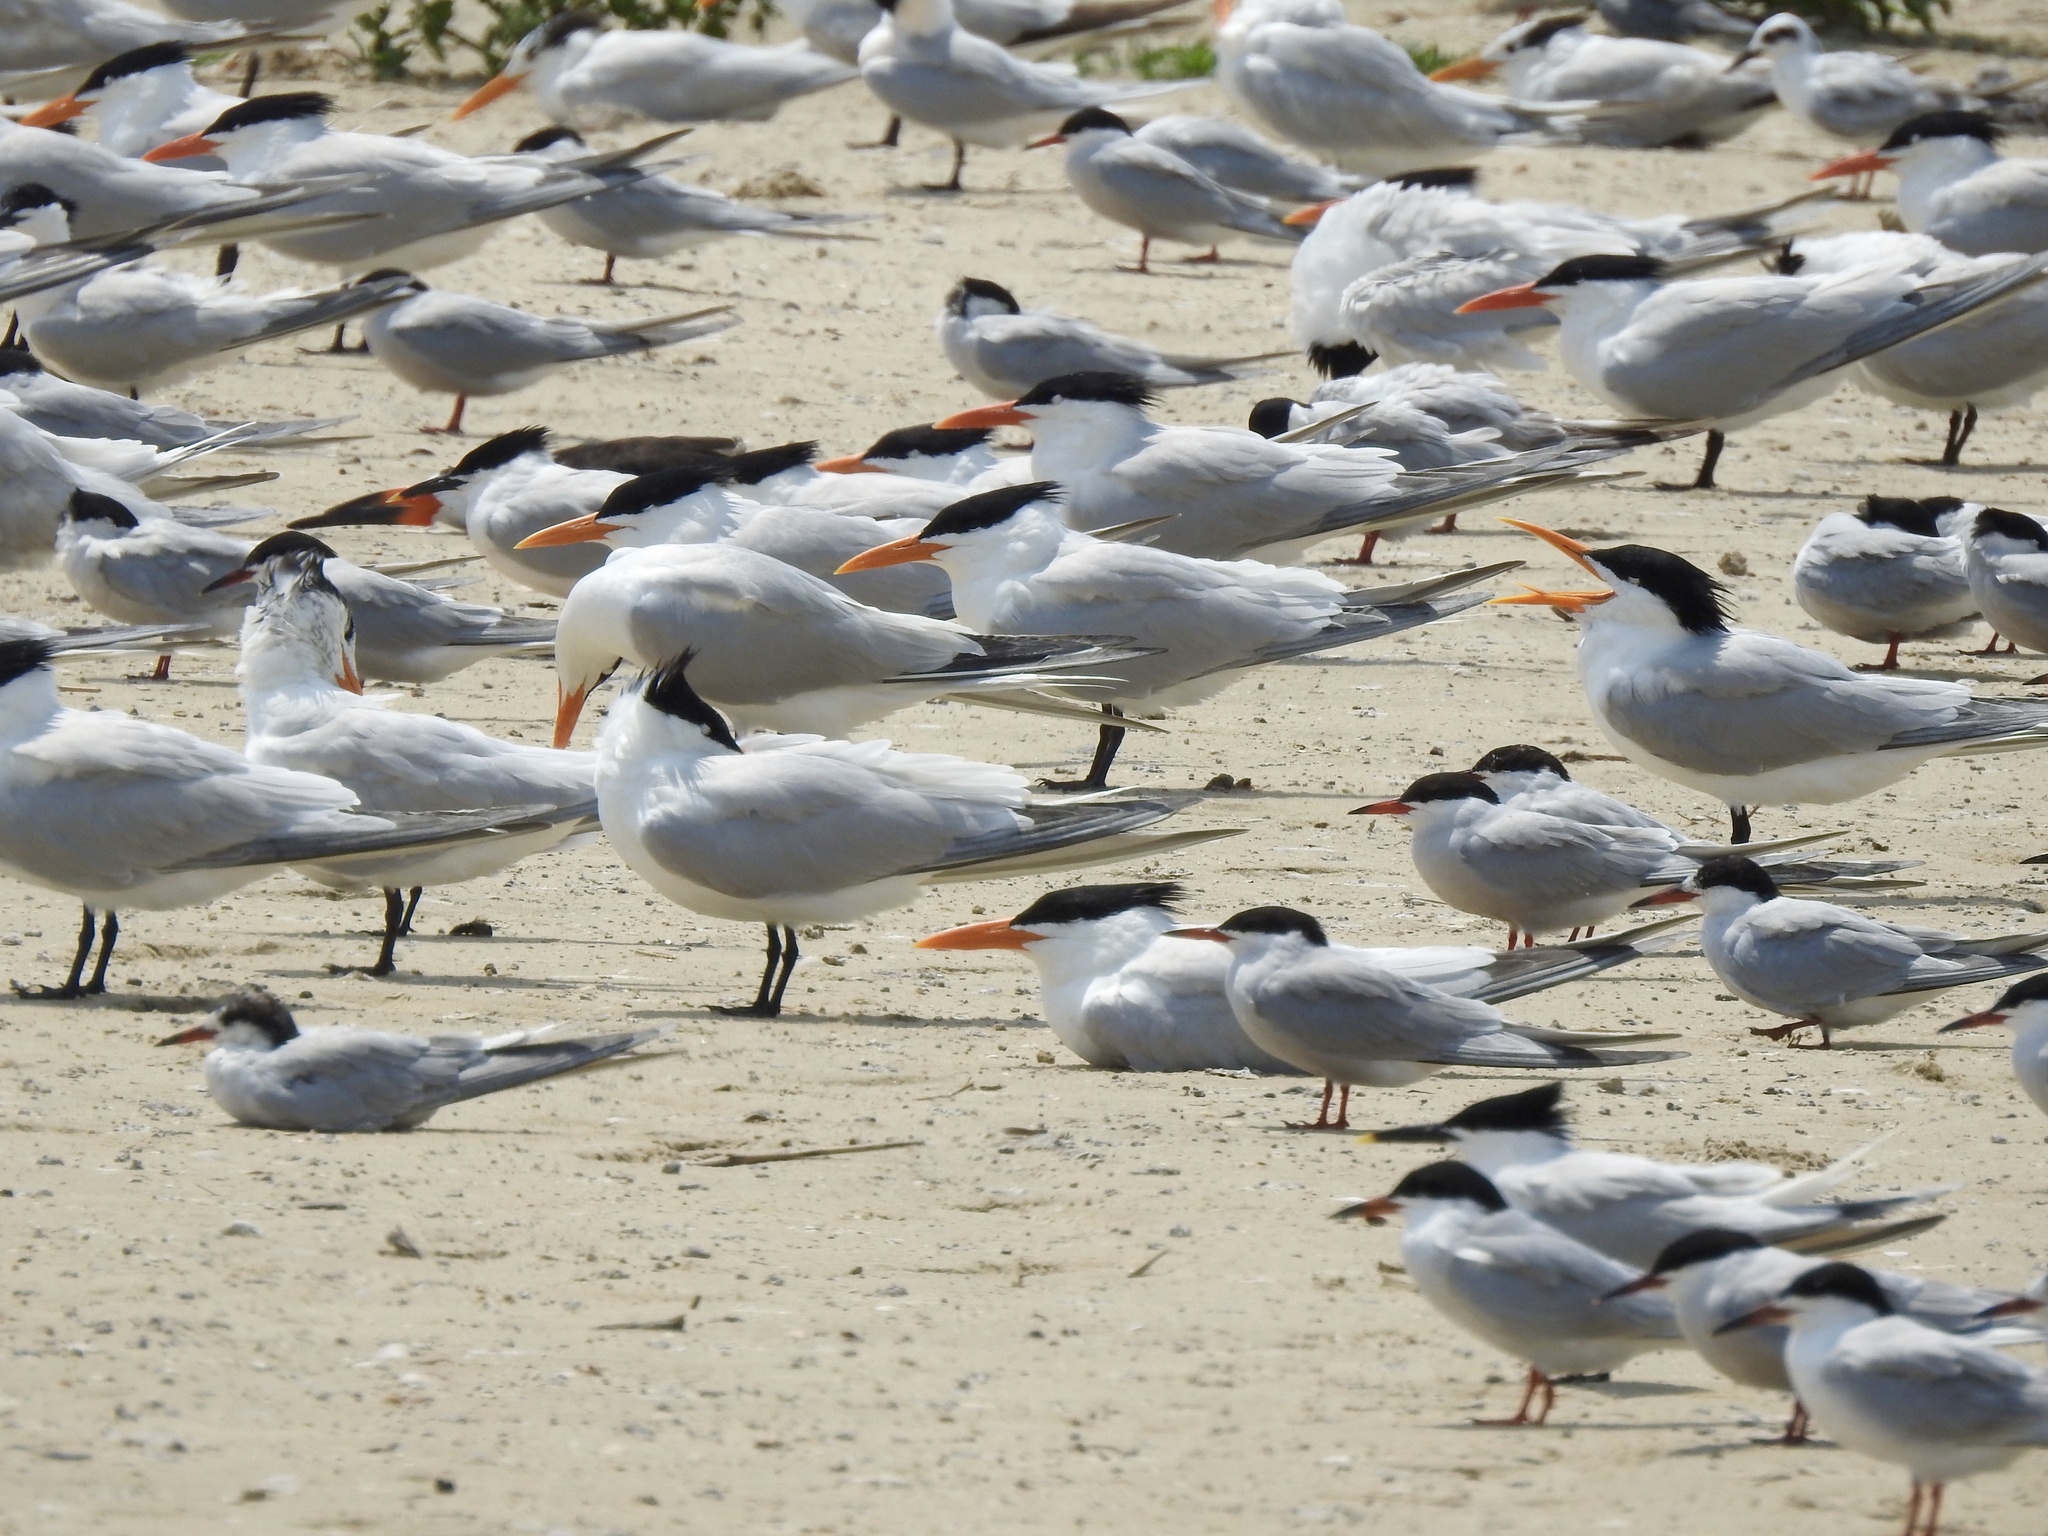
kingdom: Animalia
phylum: Chordata
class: Aves
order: Charadriiformes
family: Laridae
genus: Thalasseus
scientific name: Thalasseus maximus
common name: Royal tern
